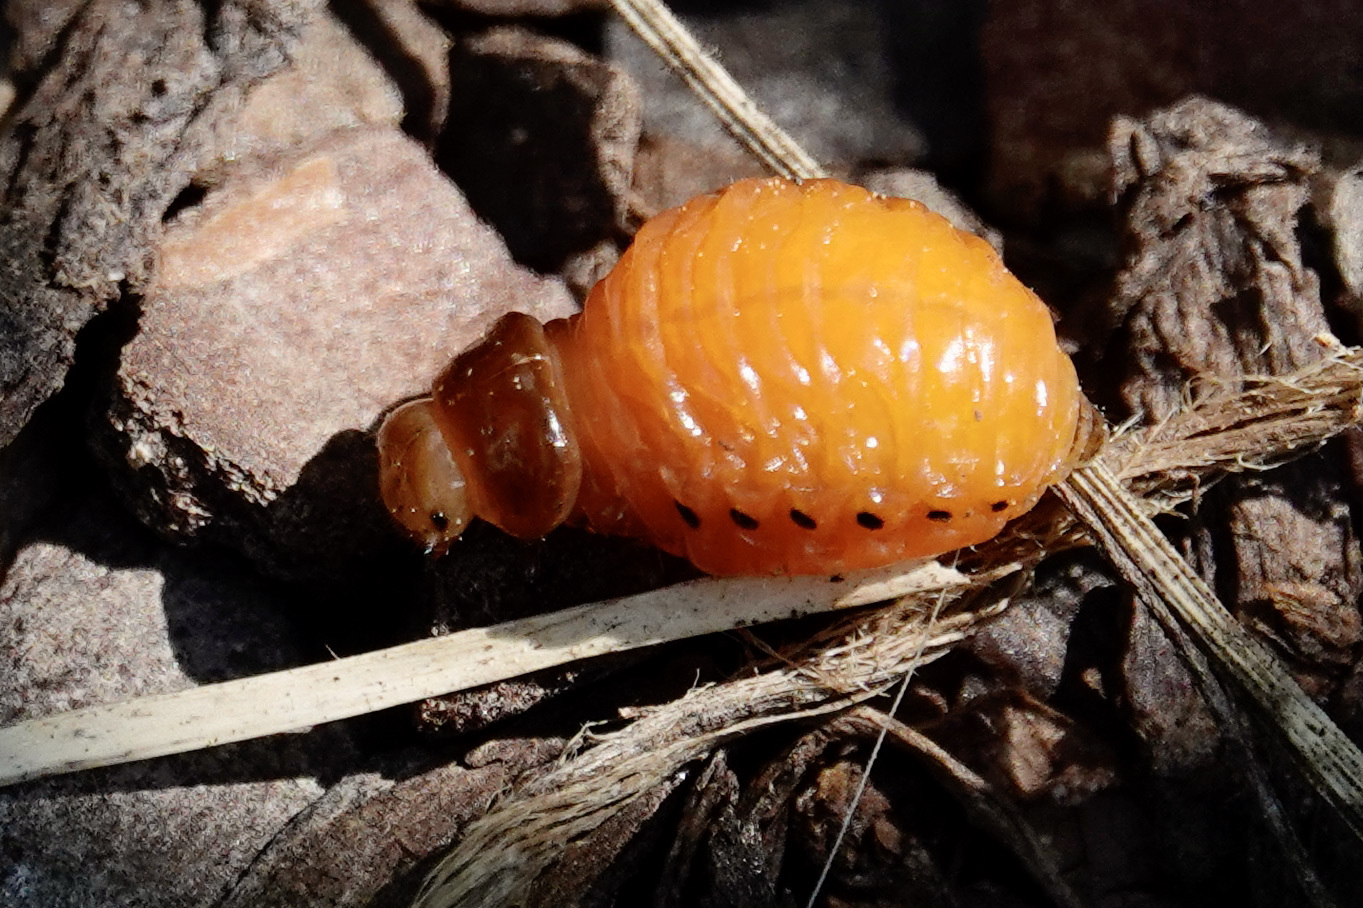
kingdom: Animalia
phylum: Arthropoda
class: Insecta
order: Coleoptera
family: Chrysomelidae
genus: Labidomera
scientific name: Labidomera clivicollis
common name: Swamp milkweed leaf beetle
